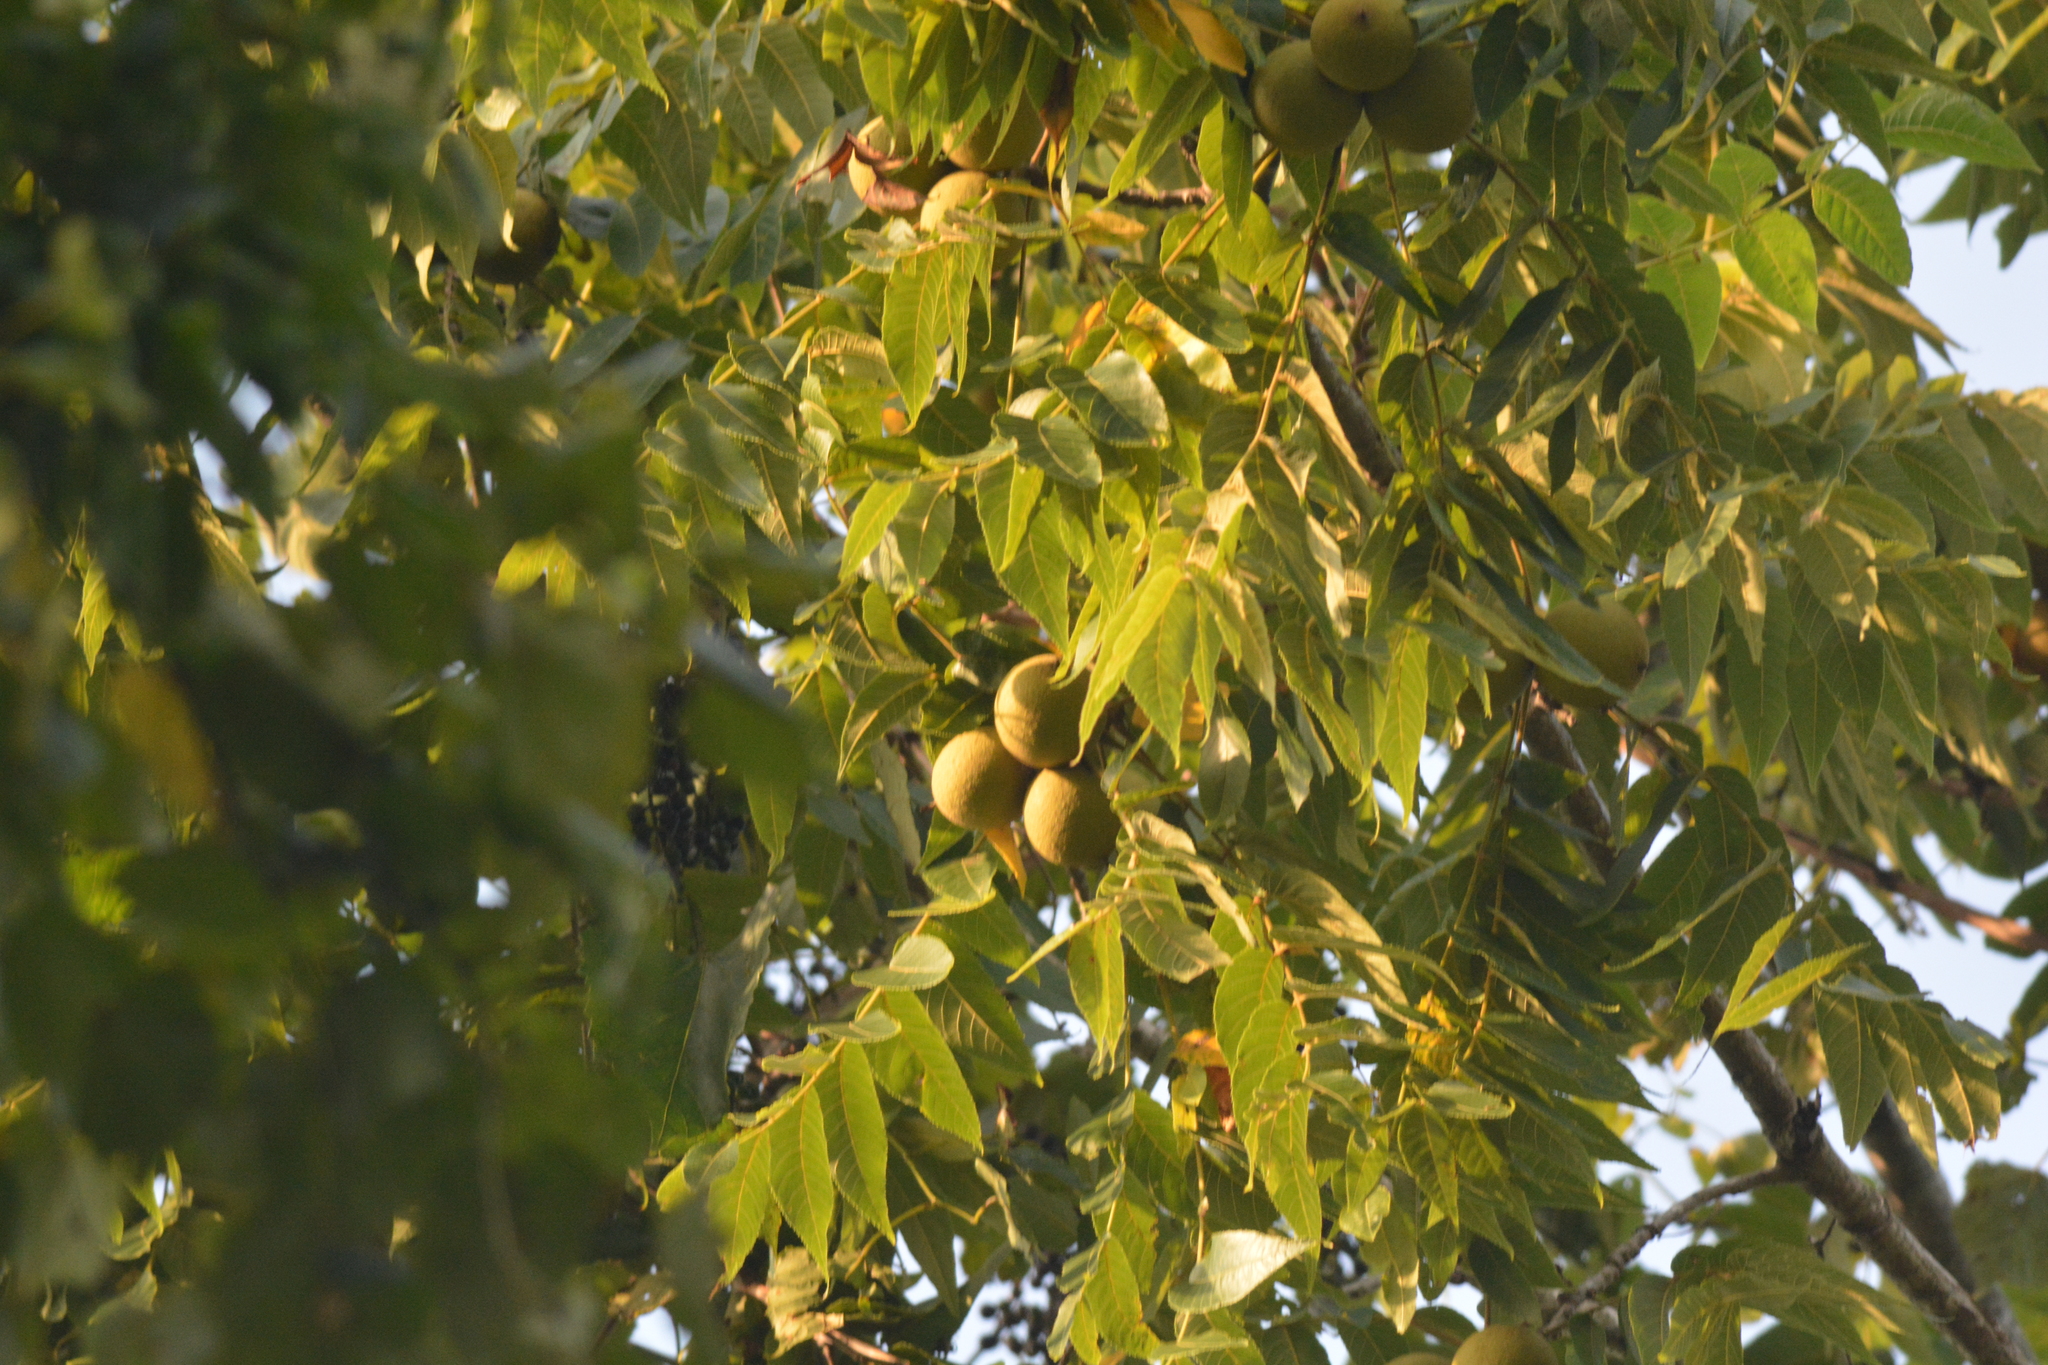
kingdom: Plantae
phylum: Tracheophyta
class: Magnoliopsida
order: Fagales
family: Juglandaceae
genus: Juglans
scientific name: Juglans nigra
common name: Black walnut
